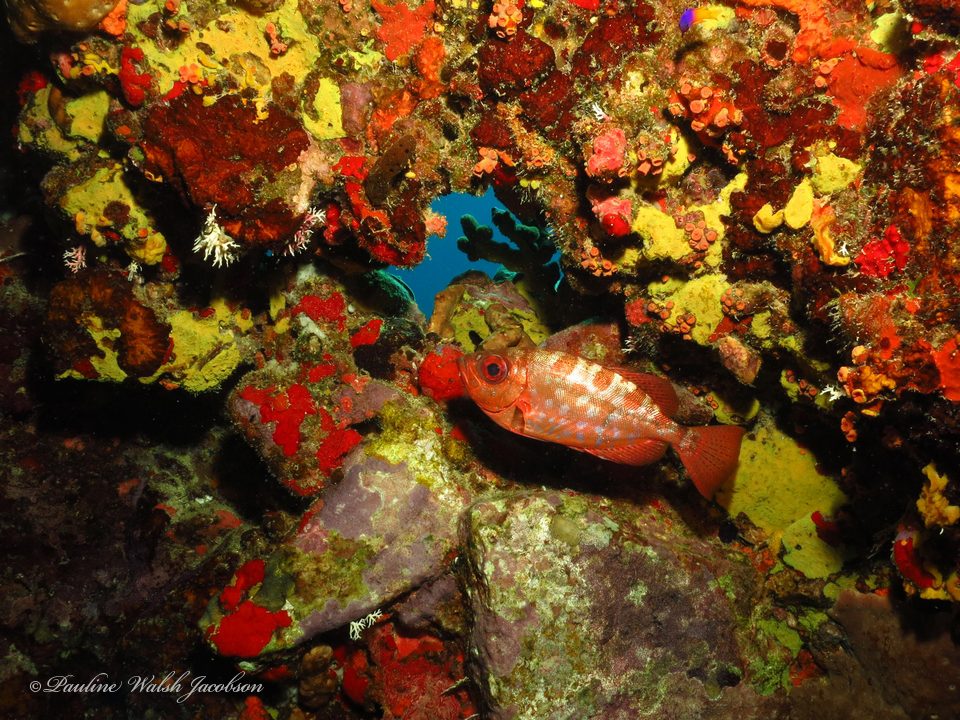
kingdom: Animalia
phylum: Chordata
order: Perciformes
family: Priacanthidae
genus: Heteropriacanthus
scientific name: Heteropriacanthus cruentatus
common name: Glasseye
